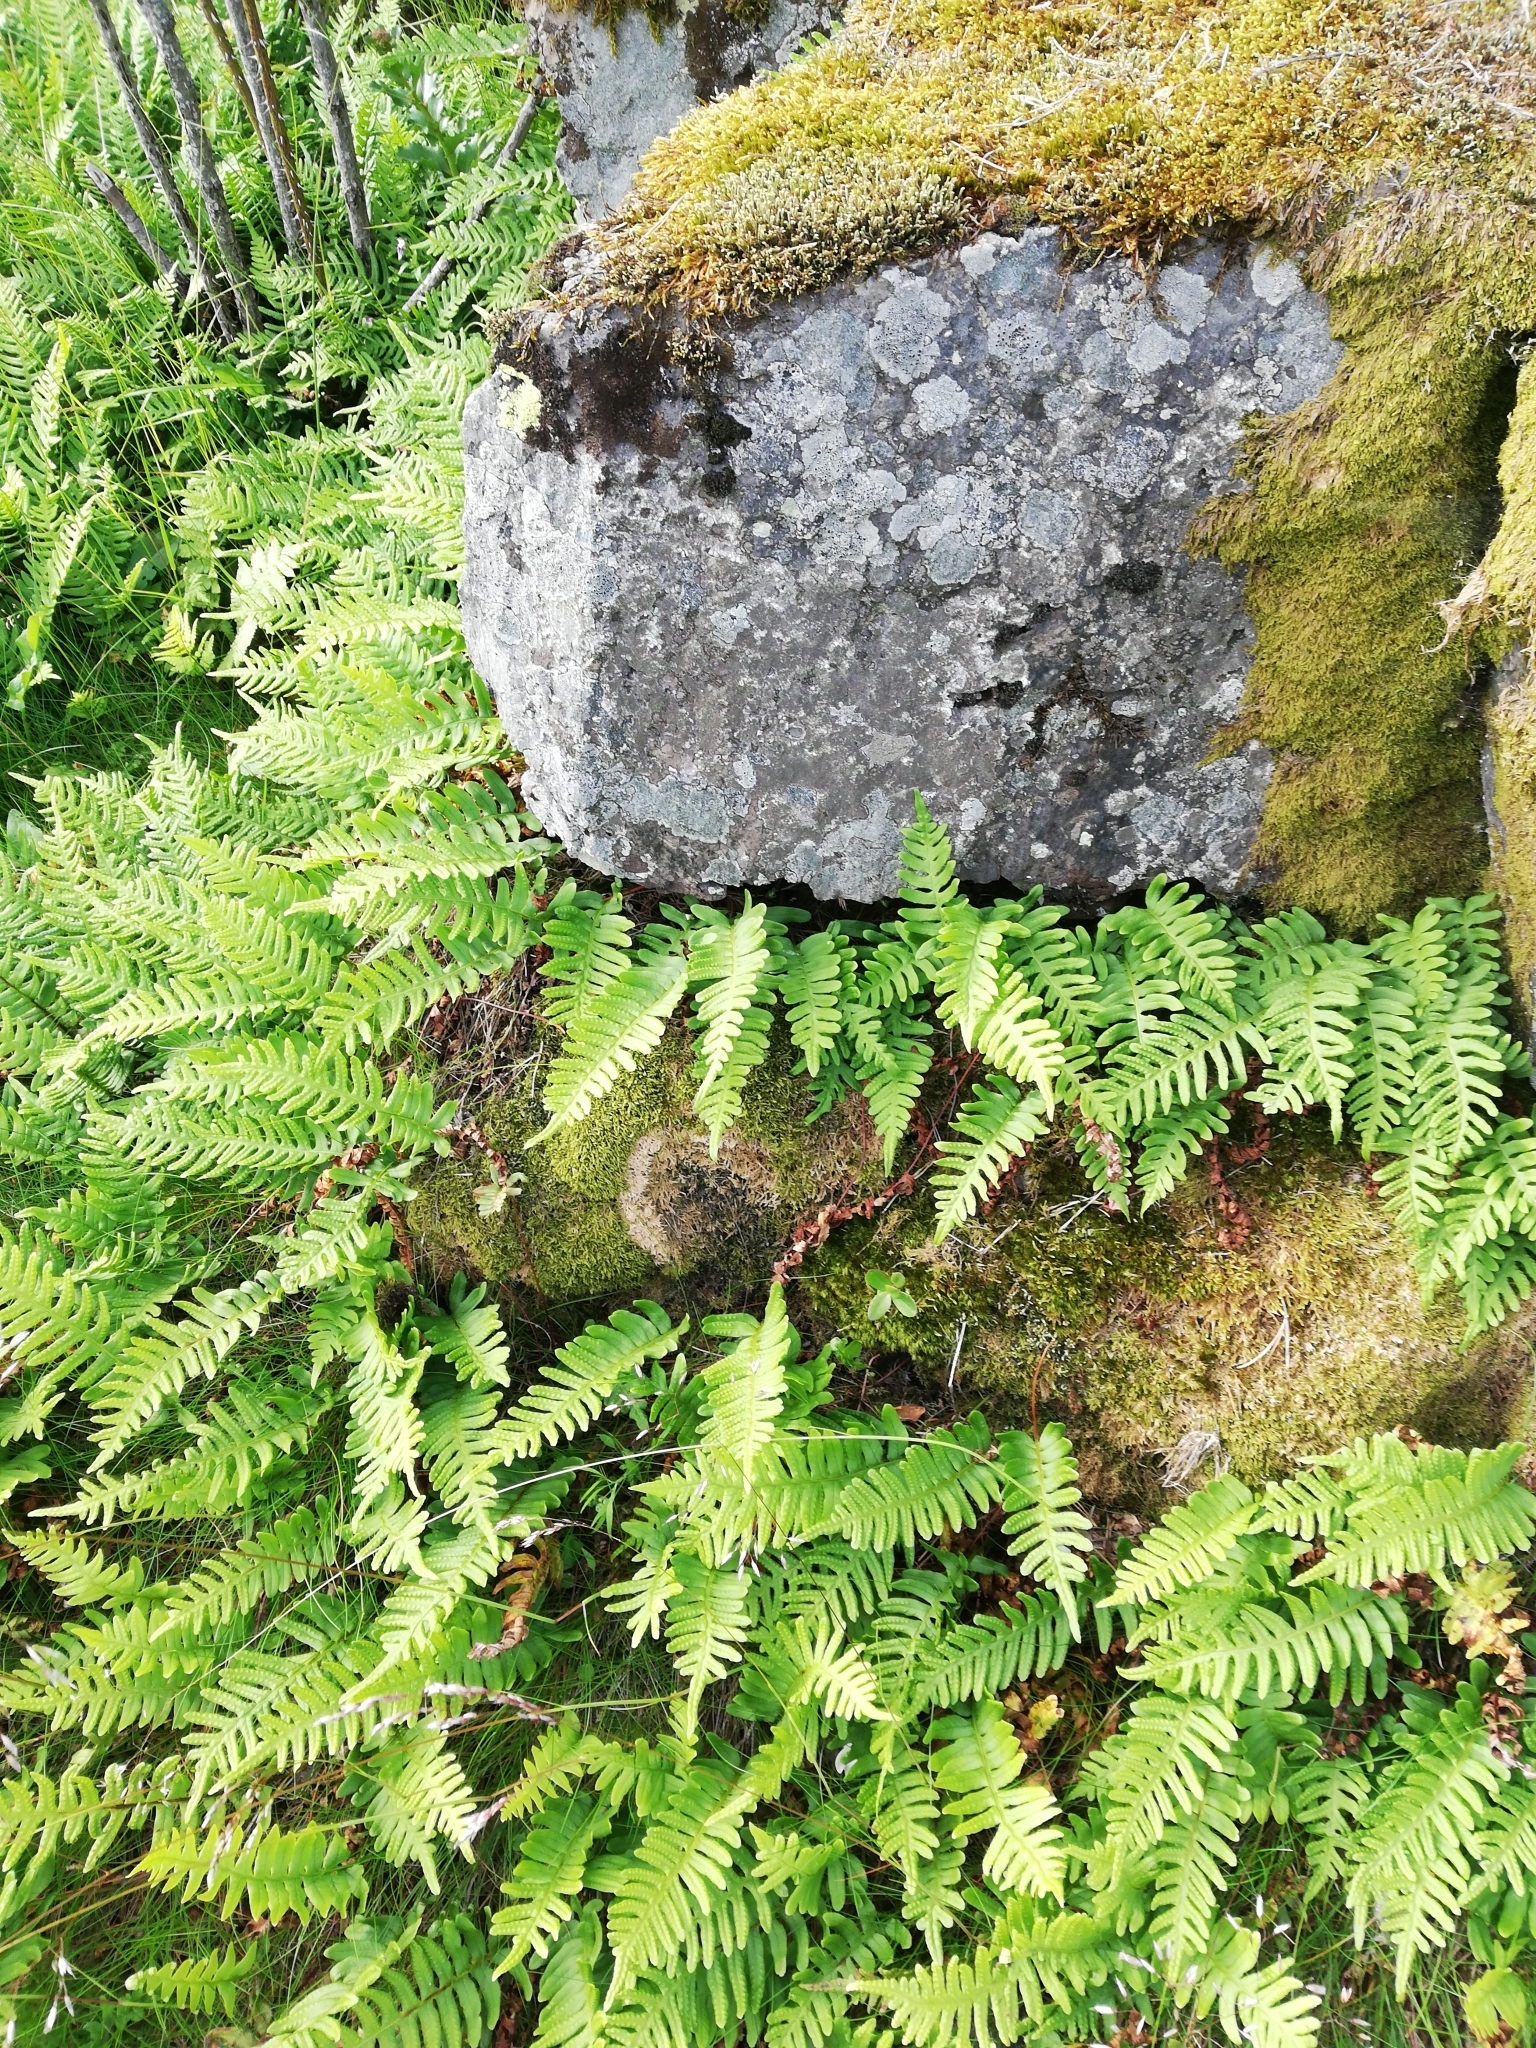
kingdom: Plantae
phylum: Tracheophyta
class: Polypodiopsida
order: Polypodiales
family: Polypodiaceae
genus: Polypodium
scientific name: Polypodium vulgare
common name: Common polypody
